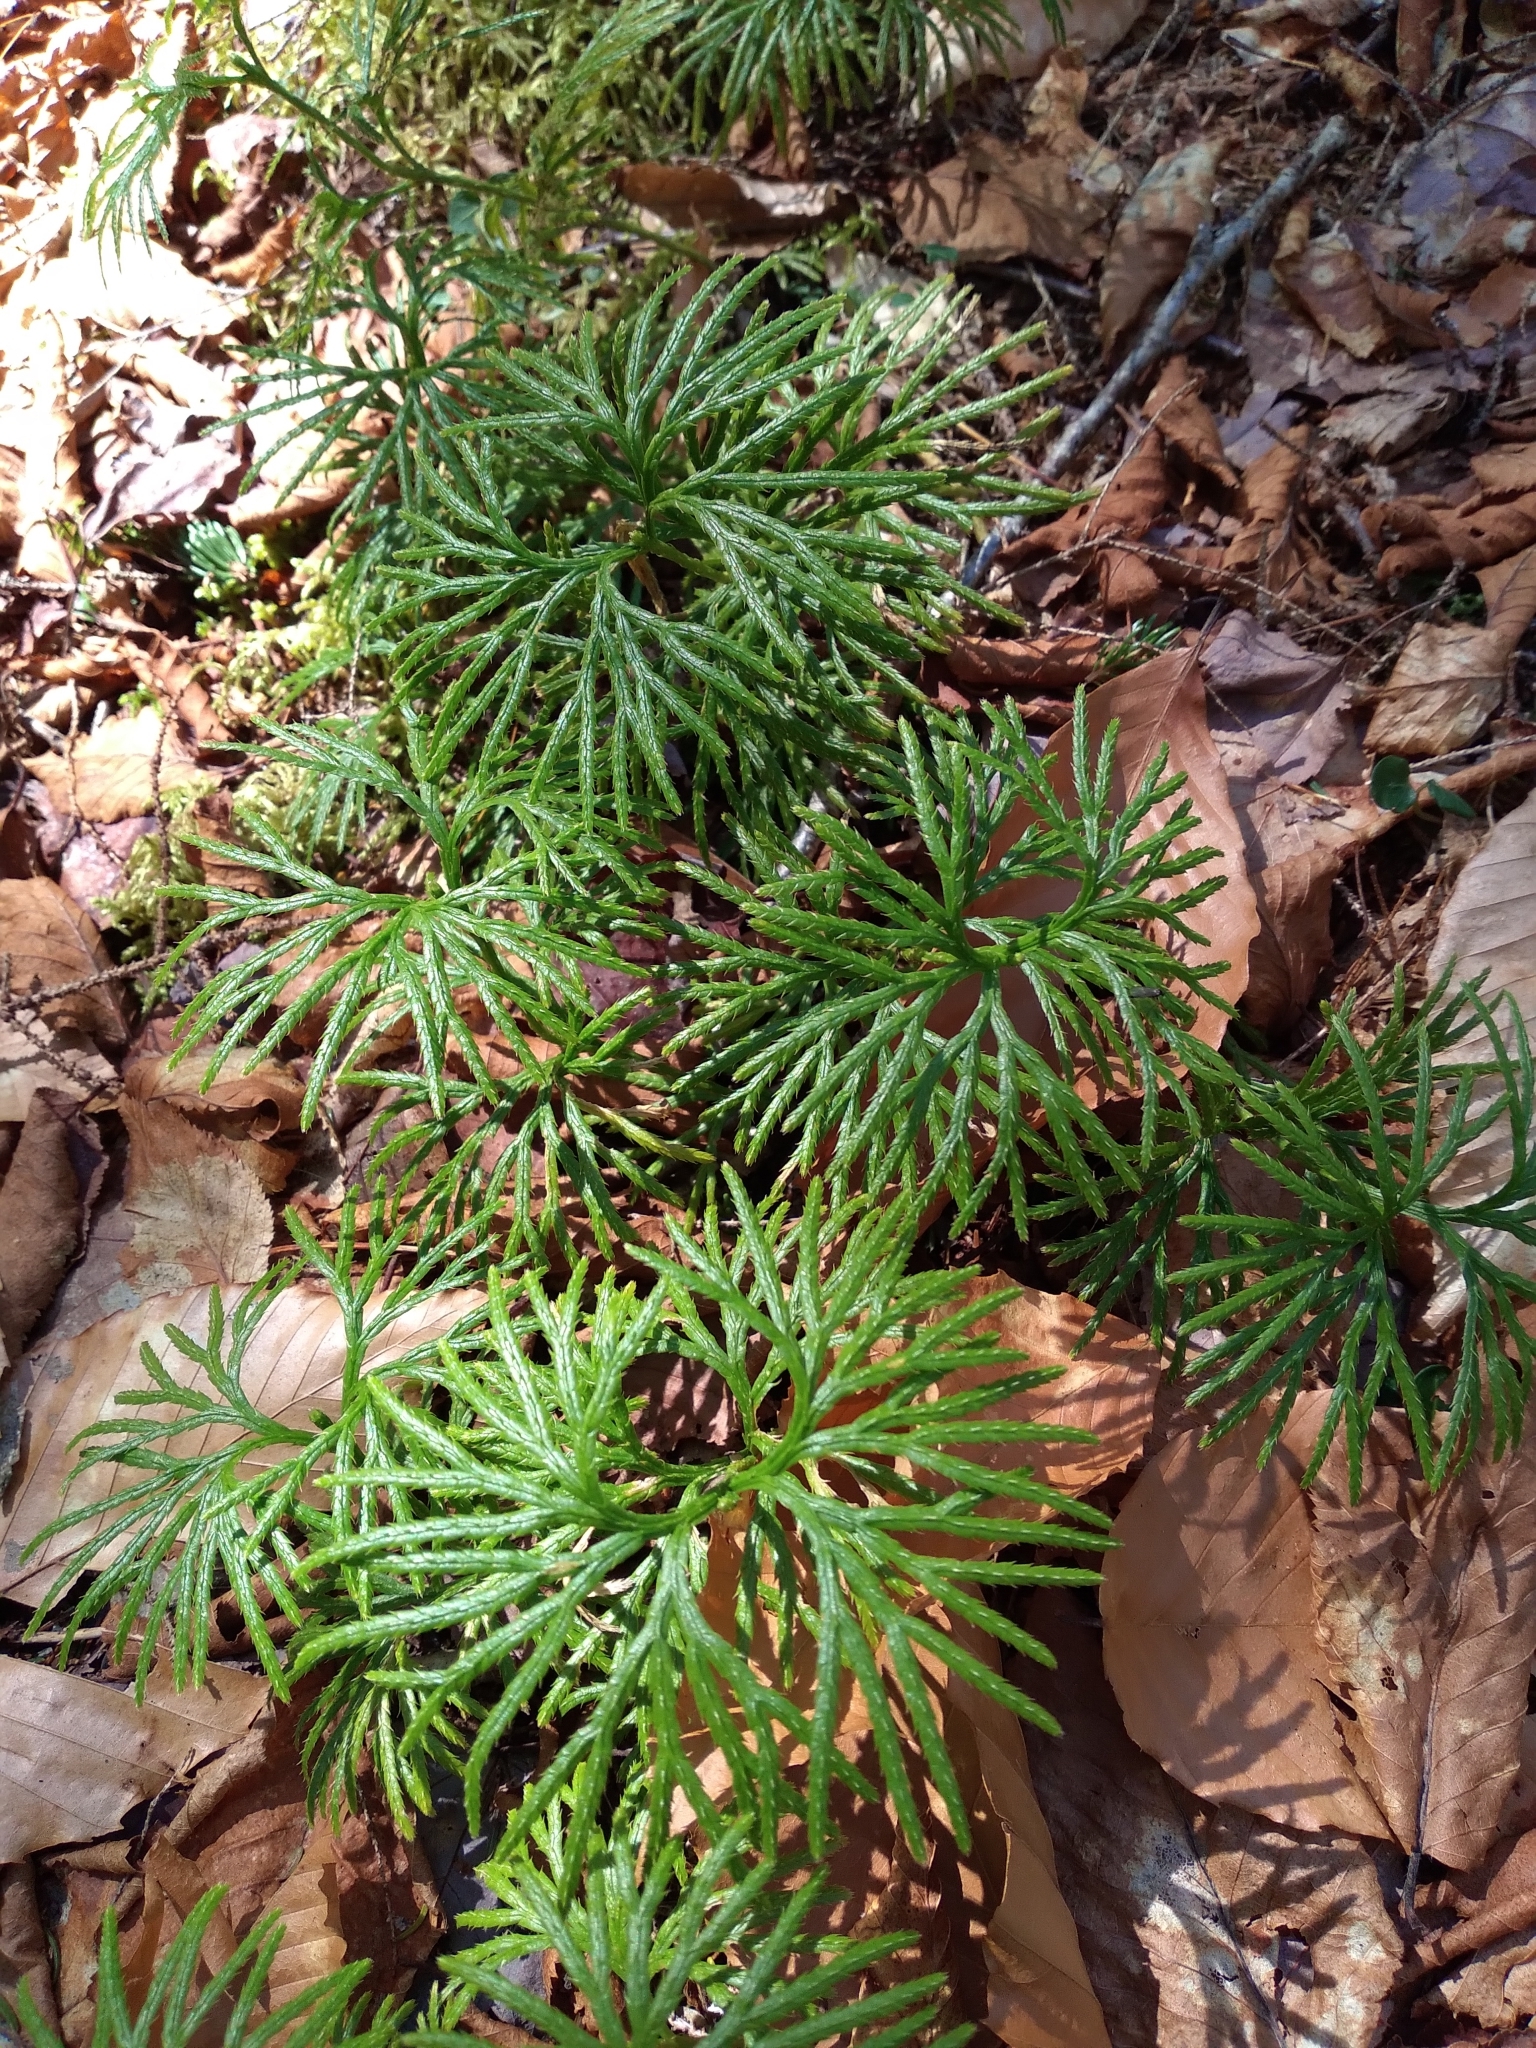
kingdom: Plantae
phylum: Tracheophyta
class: Lycopodiopsida
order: Lycopodiales
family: Lycopodiaceae
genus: Diphasiastrum
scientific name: Diphasiastrum digitatum
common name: Southern running-pine
